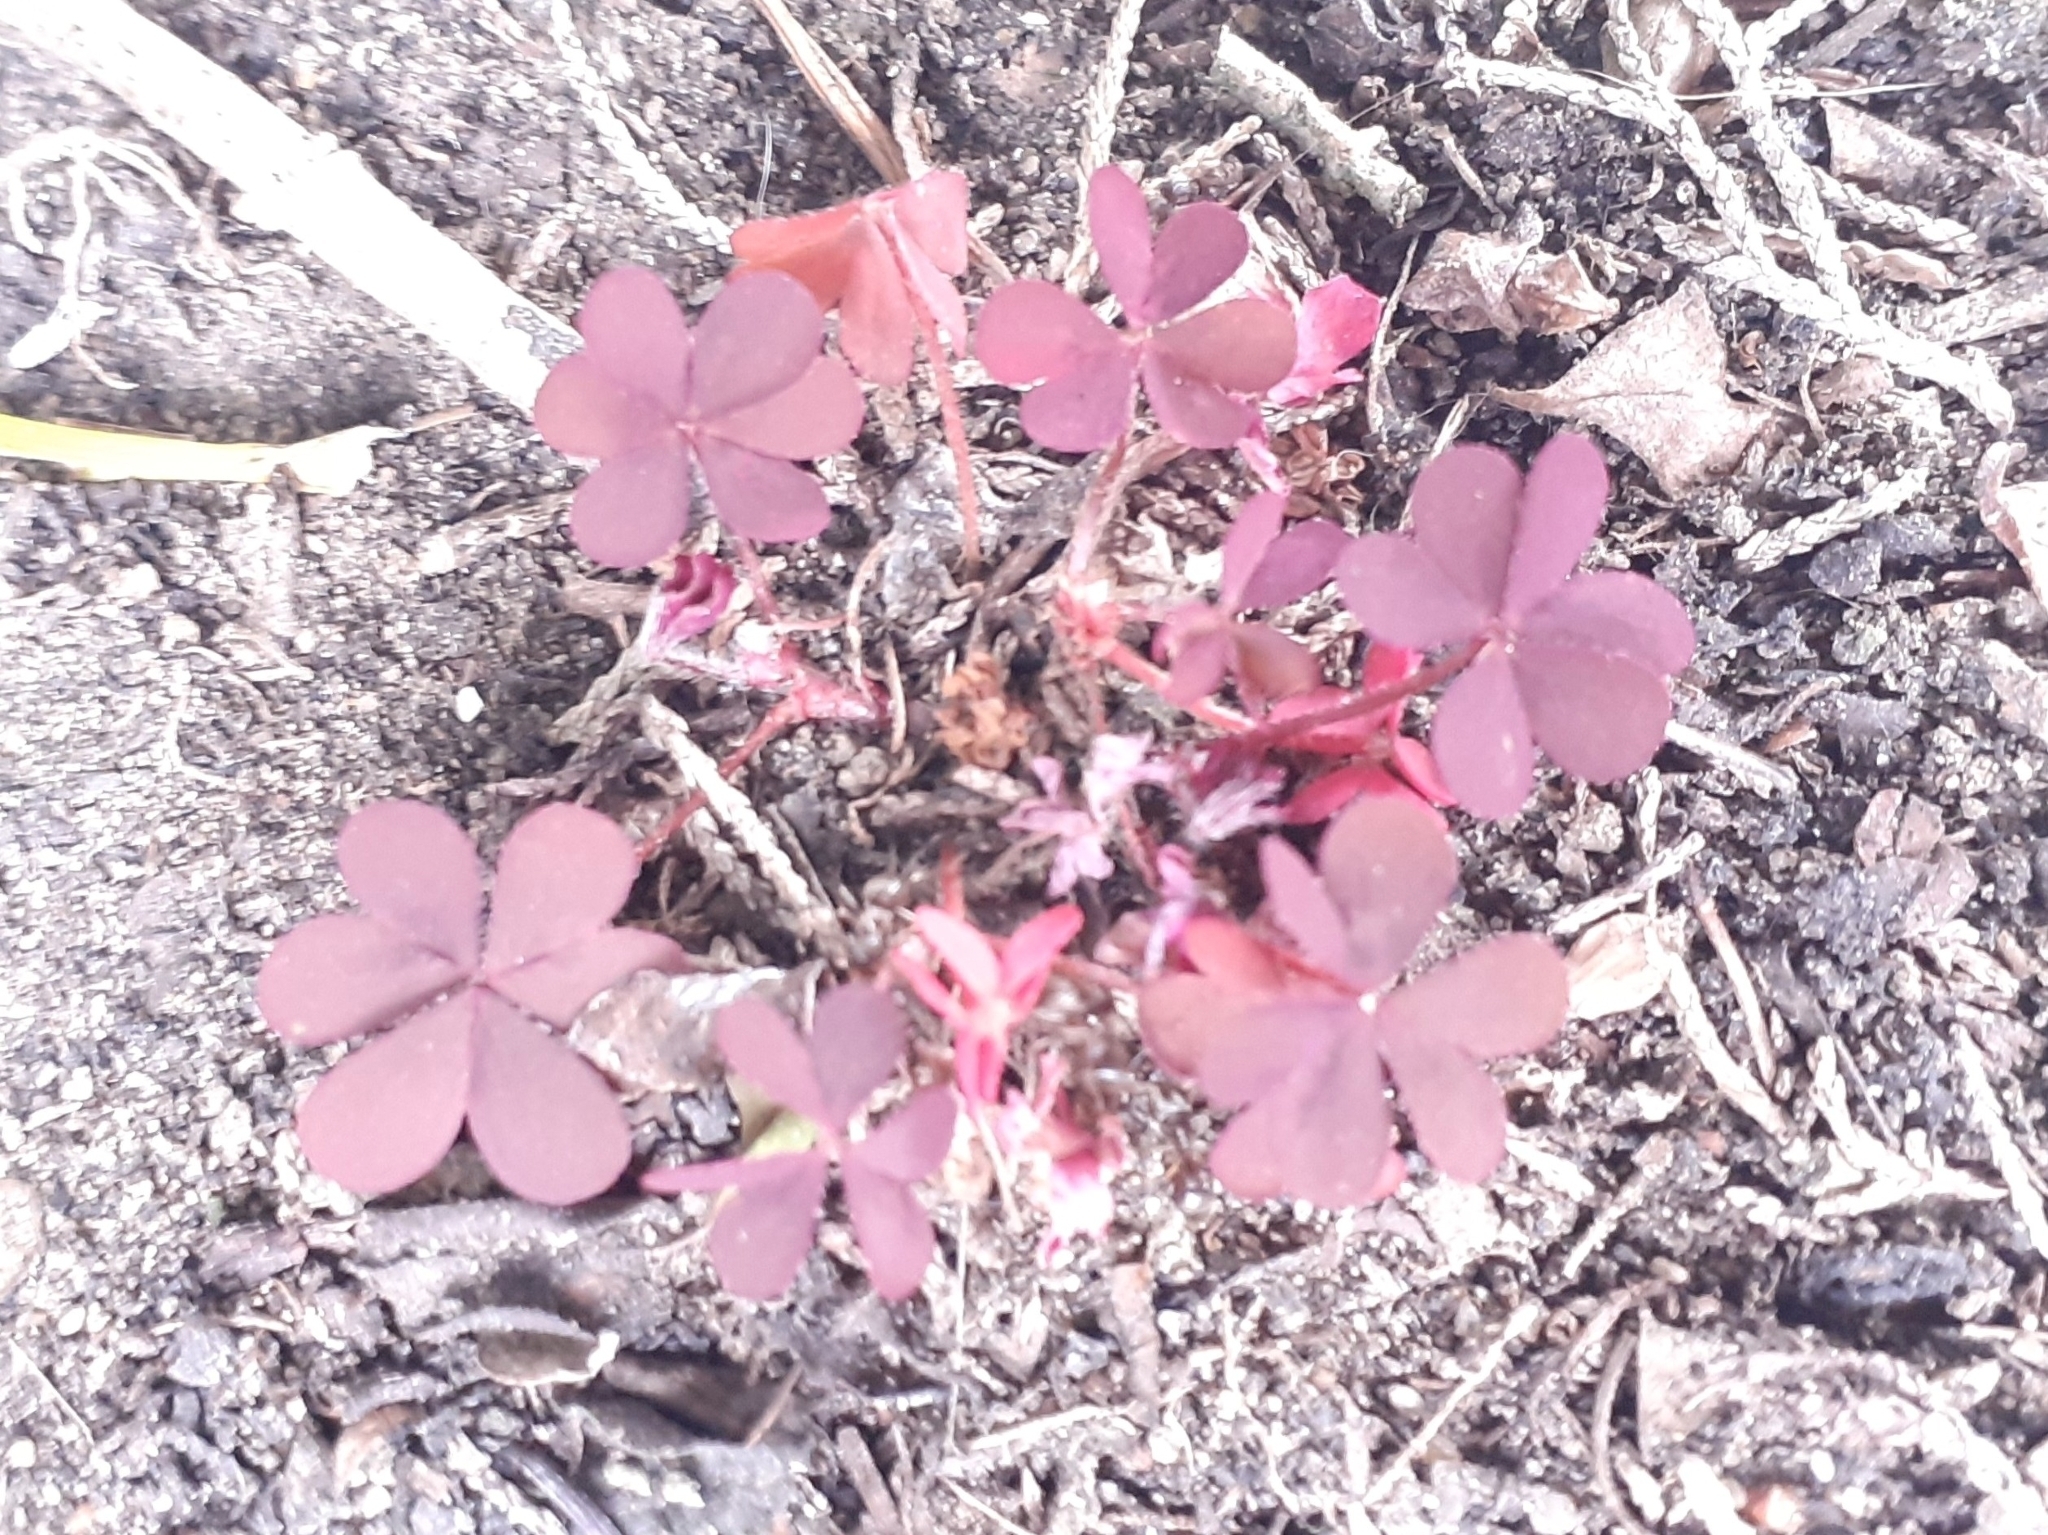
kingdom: Plantae
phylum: Tracheophyta
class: Magnoliopsida
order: Oxalidales
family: Oxalidaceae
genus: Oxalis
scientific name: Oxalis corniculata
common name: Procumbent yellow-sorrel
